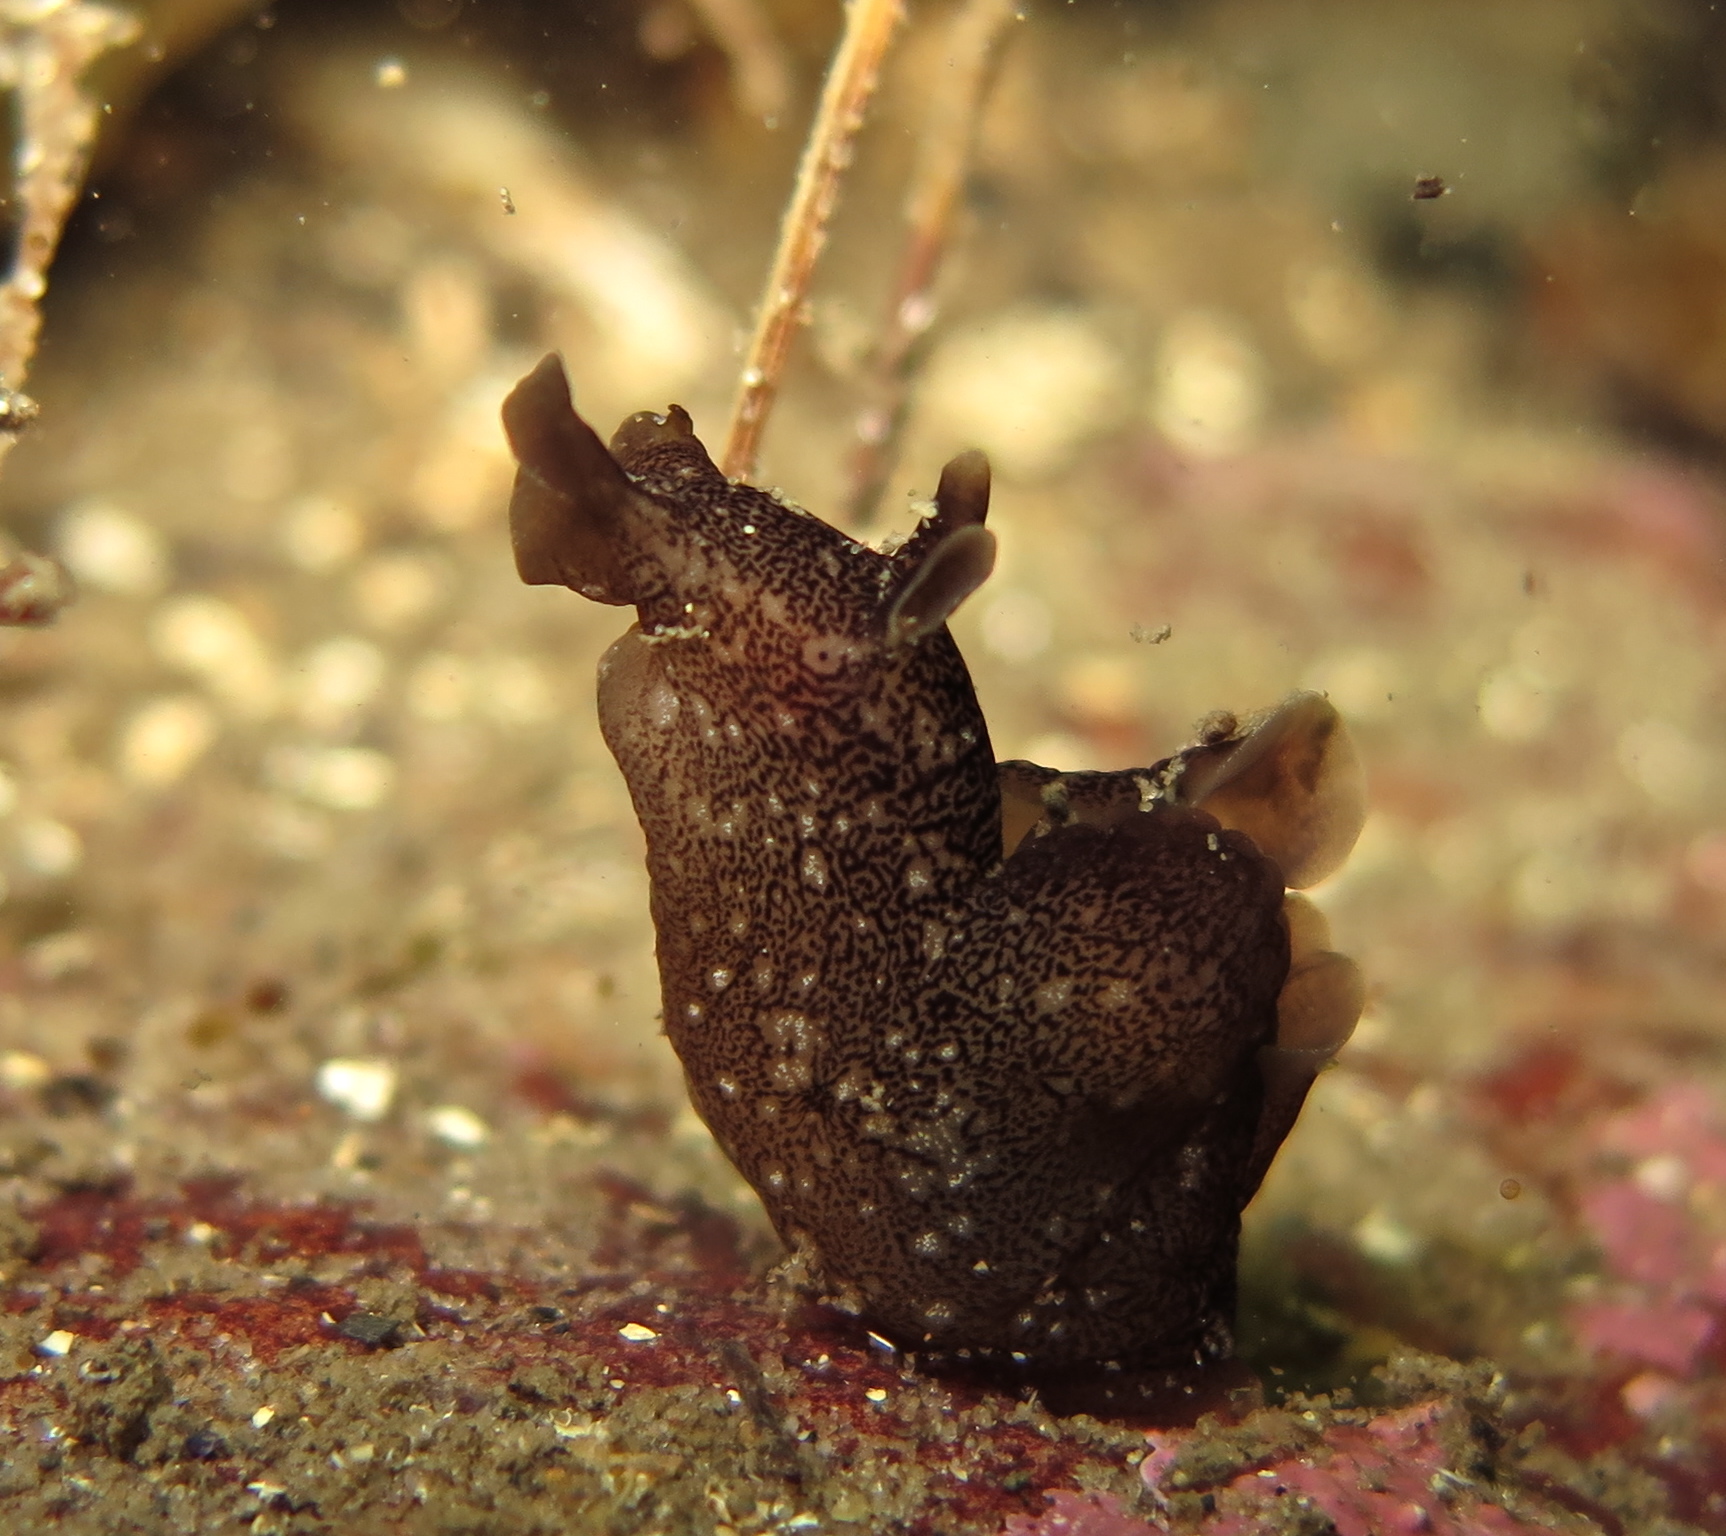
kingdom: Animalia
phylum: Mollusca
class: Gastropoda
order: Aplysiida
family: Aplysiidae
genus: Aplysia
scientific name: Aplysia punctata
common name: Common sea hare
